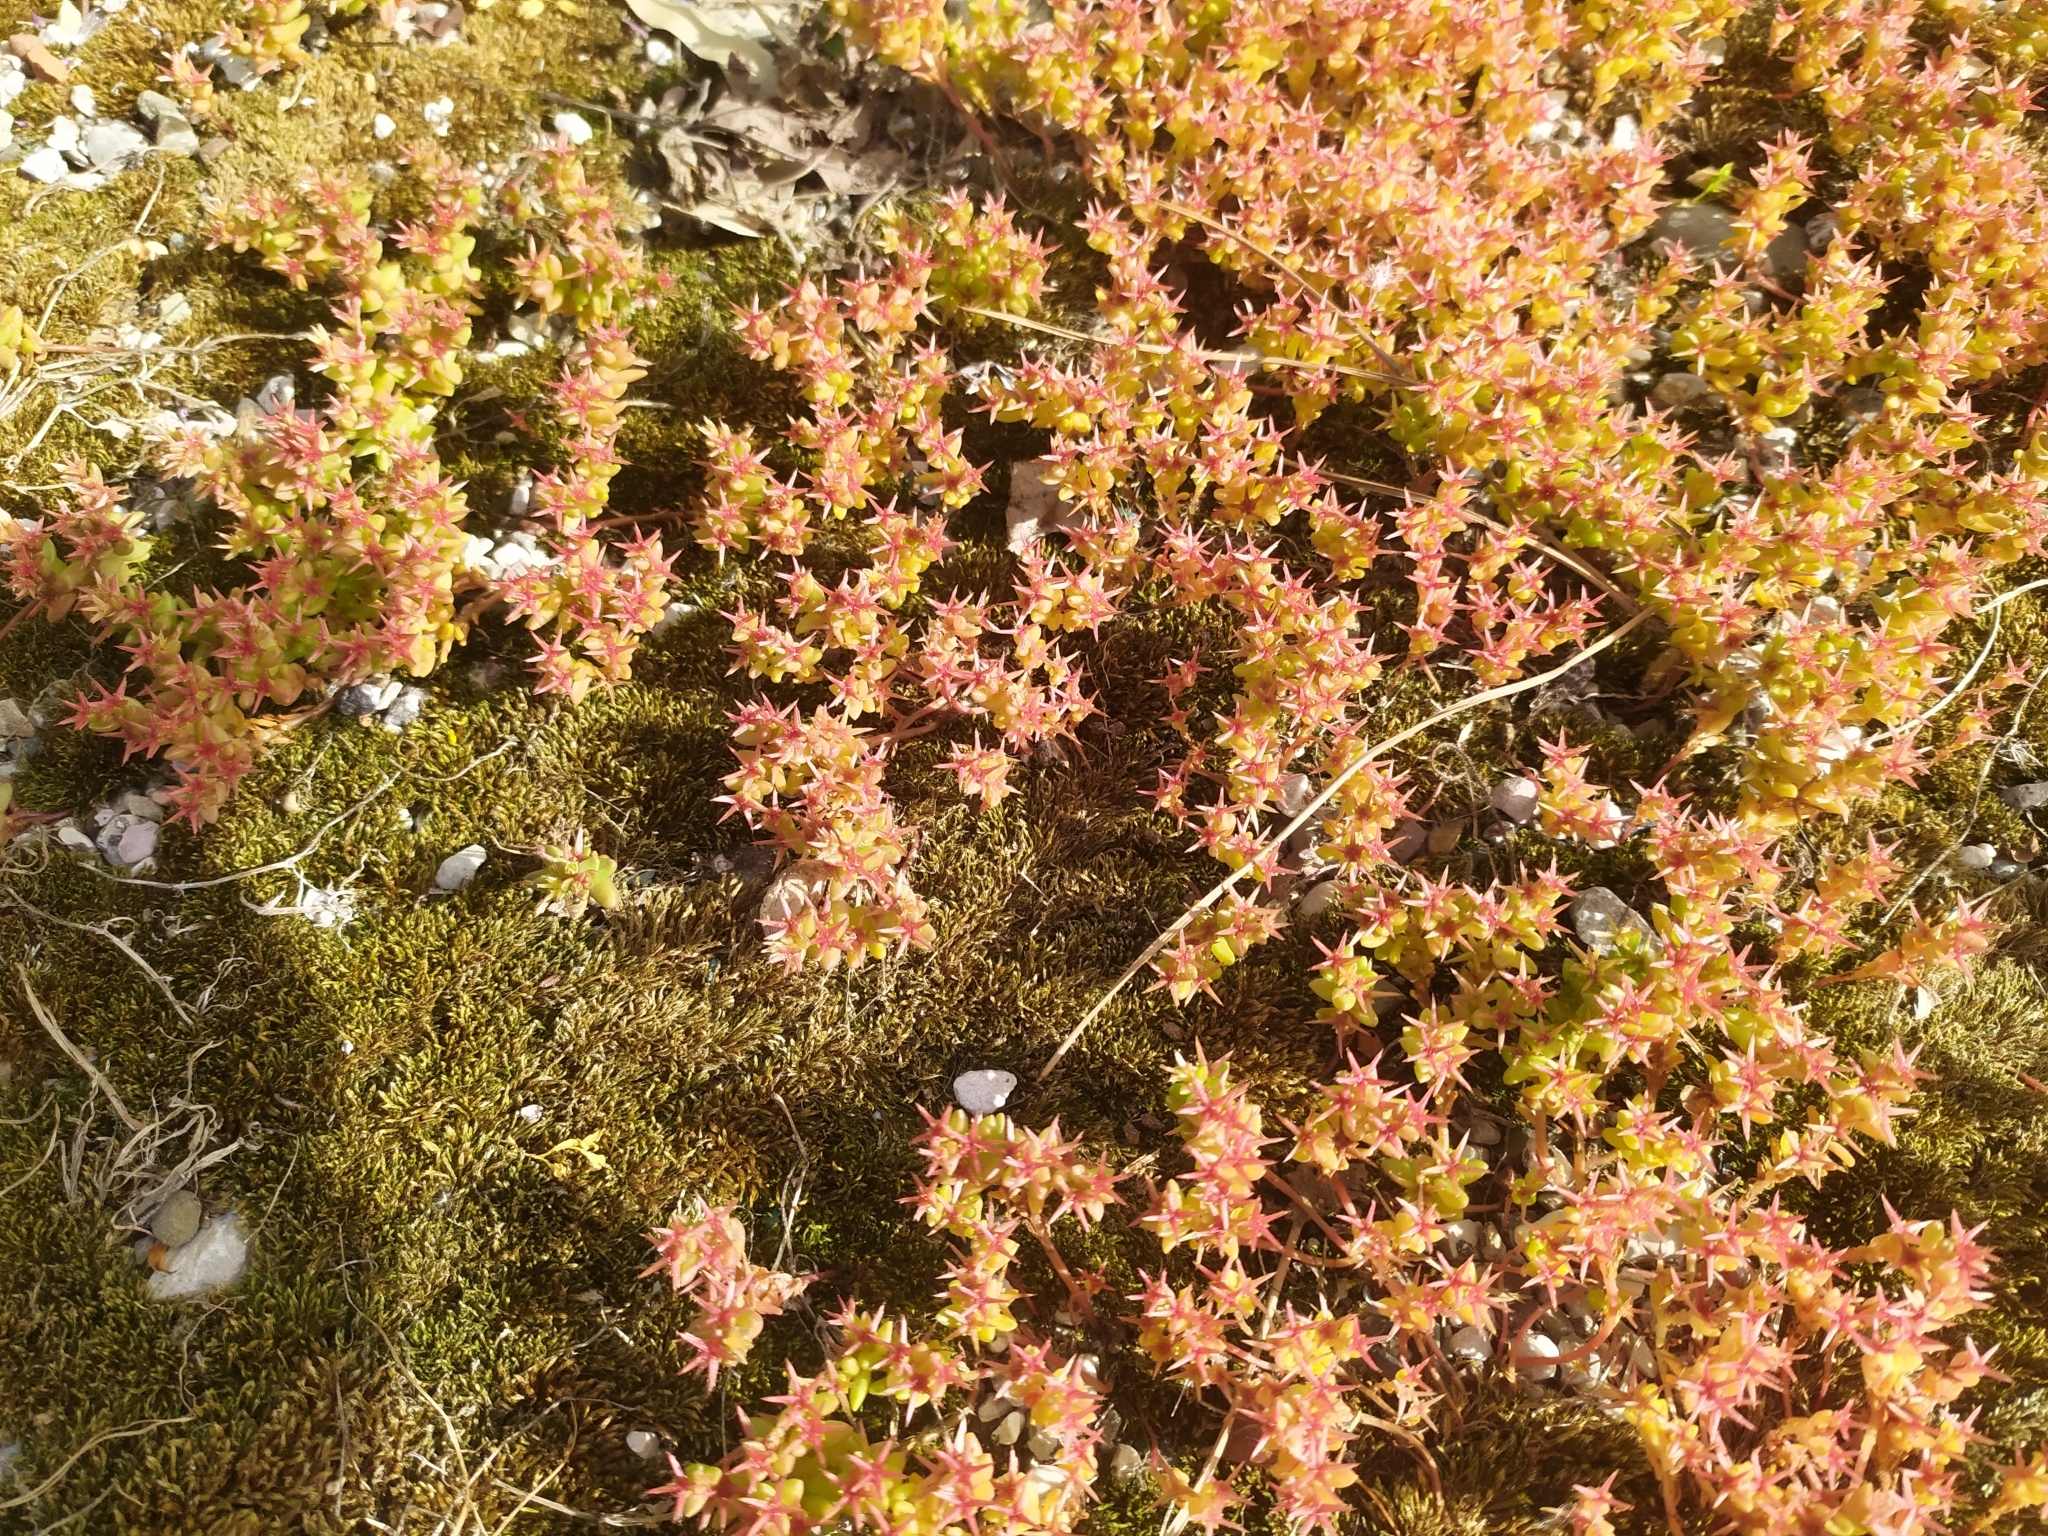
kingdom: Plantae
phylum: Tracheophyta
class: Magnoliopsida
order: Saxifragales
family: Crassulaceae
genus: Sedum
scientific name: Sedum cespitosum
